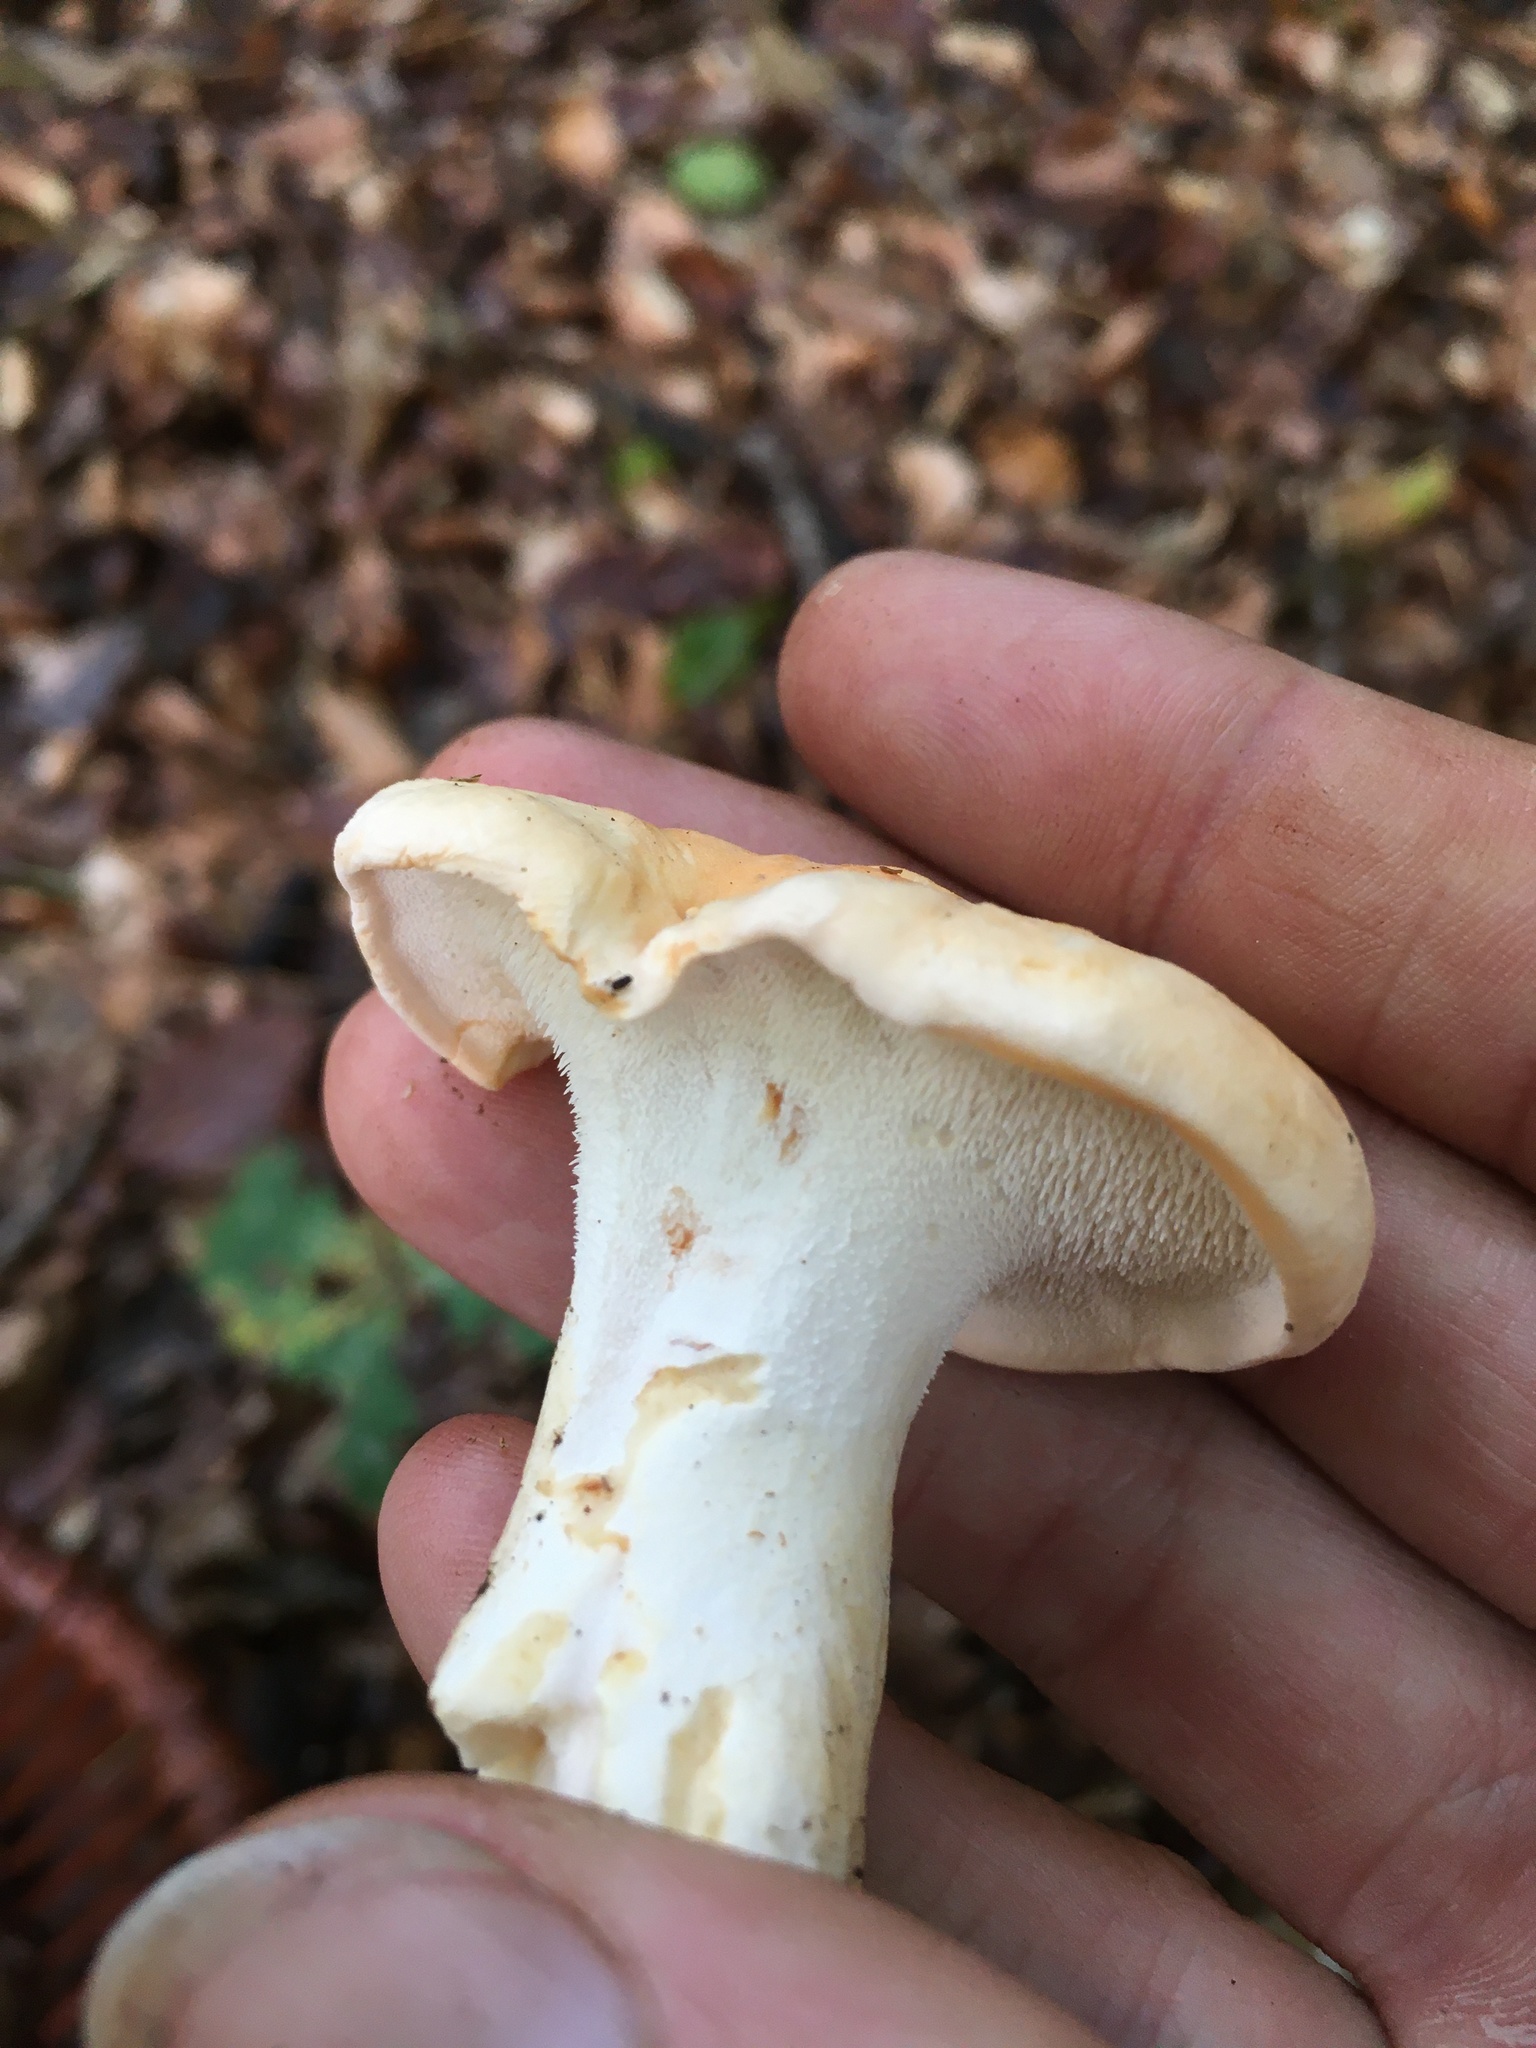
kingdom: Fungi
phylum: Basidiomycota
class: Agaricomycetes
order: Cantharellales
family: Hydnaceae
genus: Hydnum
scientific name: Hydnum repandum
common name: Wood hedgehog
